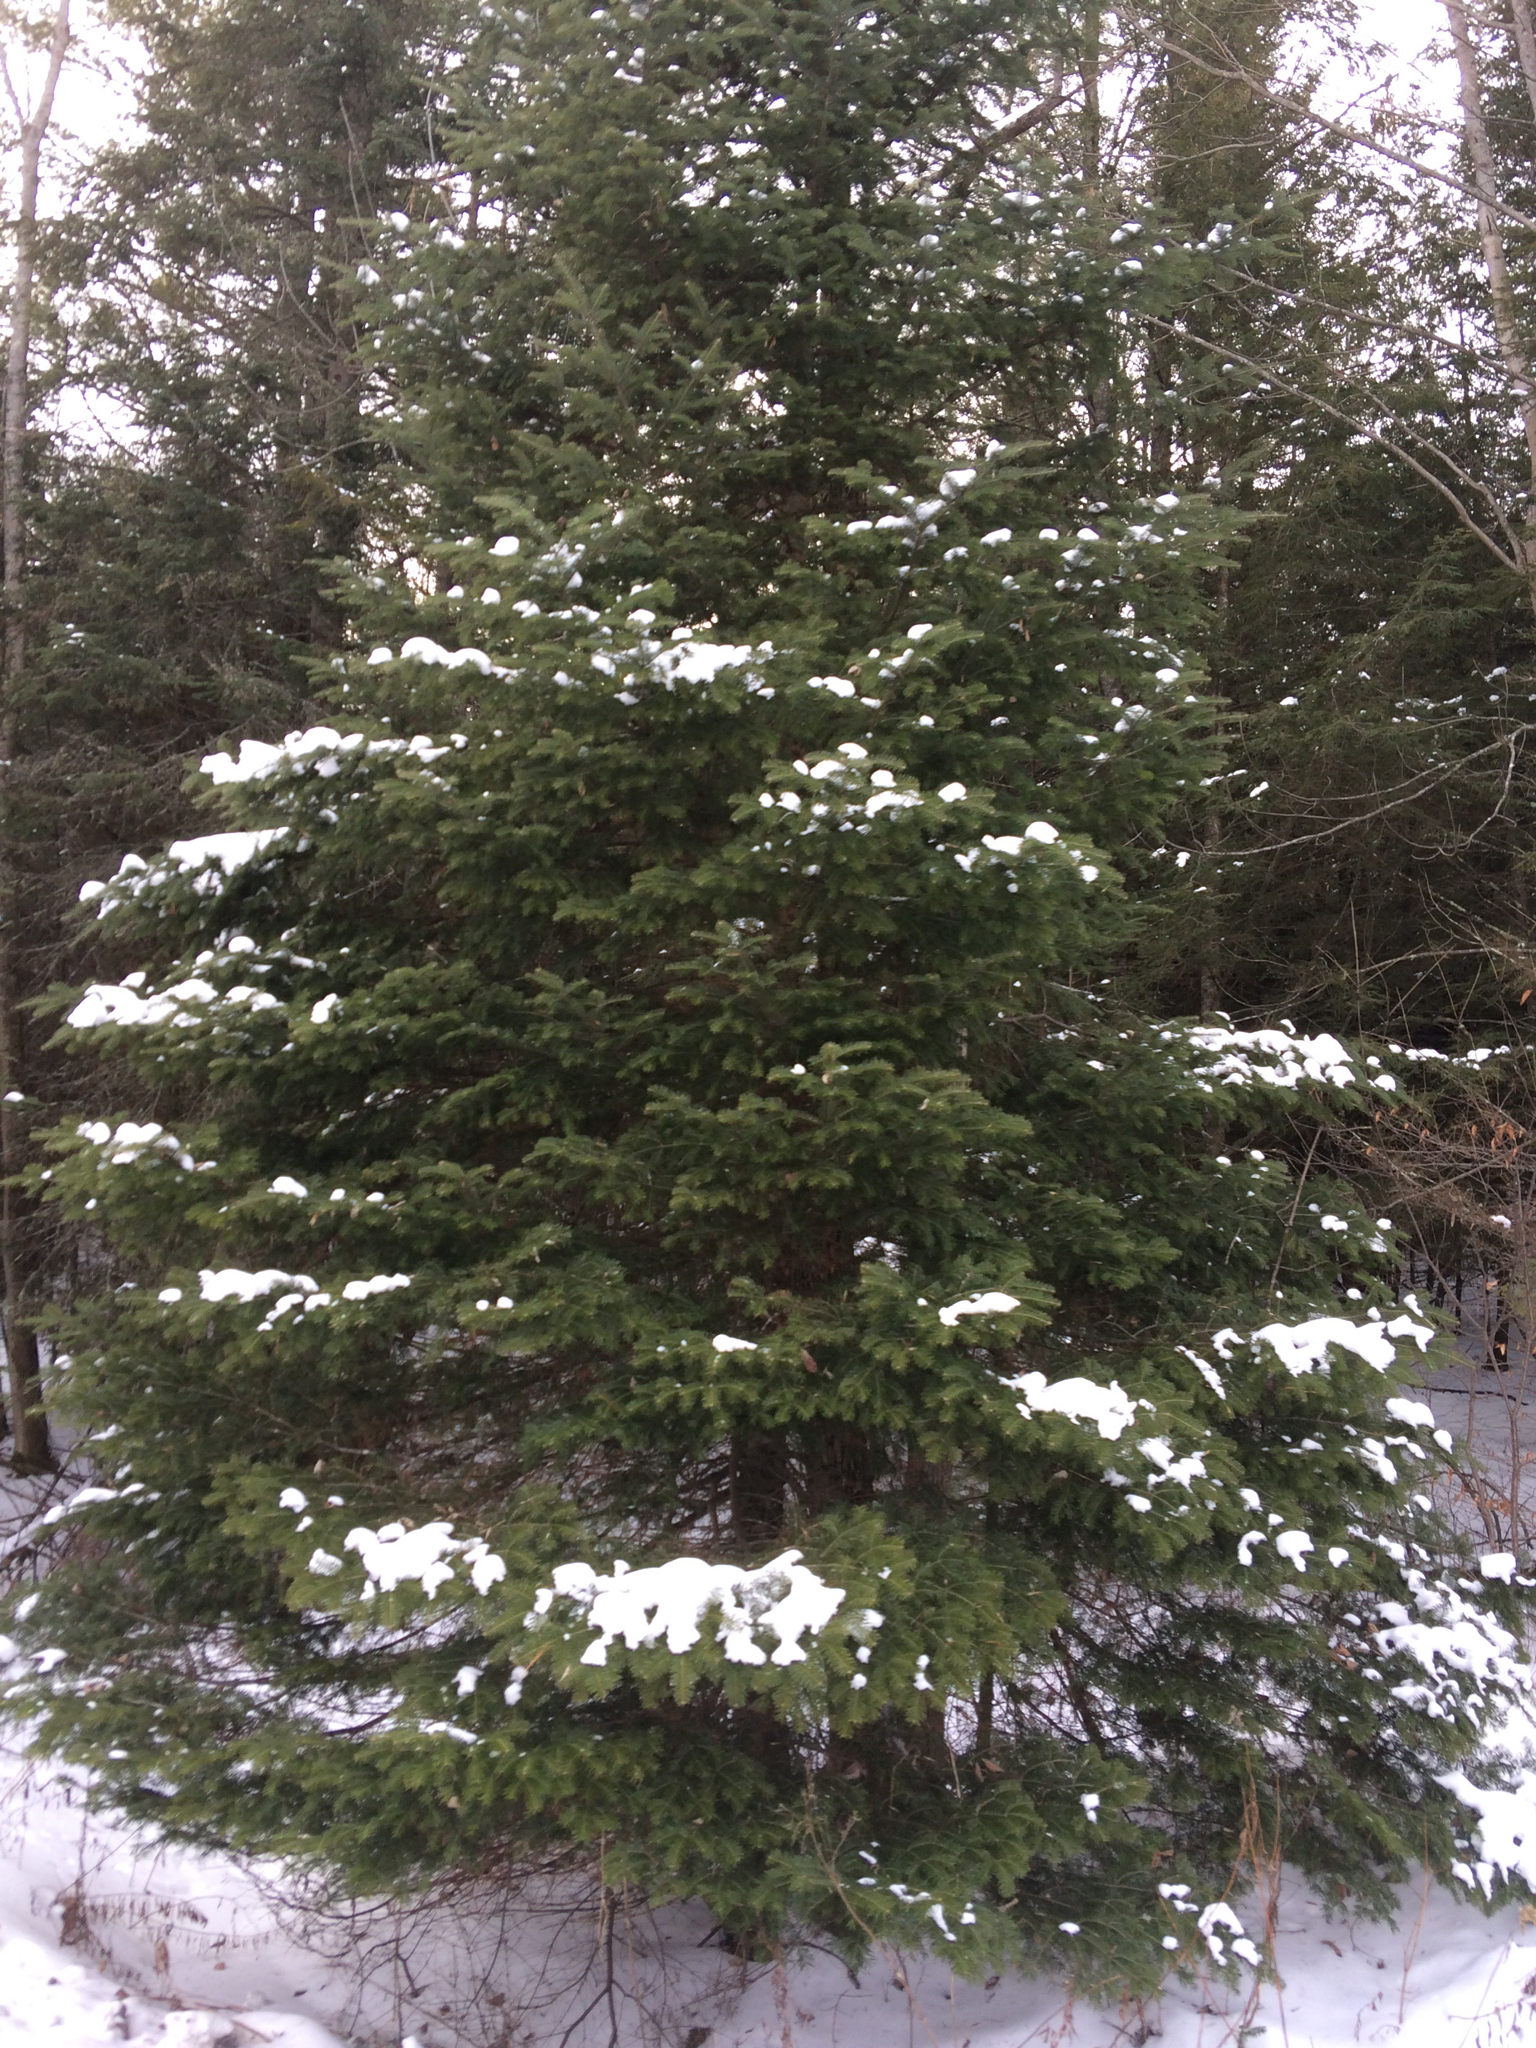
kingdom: Plantae
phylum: Tracheophyta
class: Pinopsida
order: Pinales
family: Pinaceae
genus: Abies
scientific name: Abies balsamea
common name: Balsam fir
